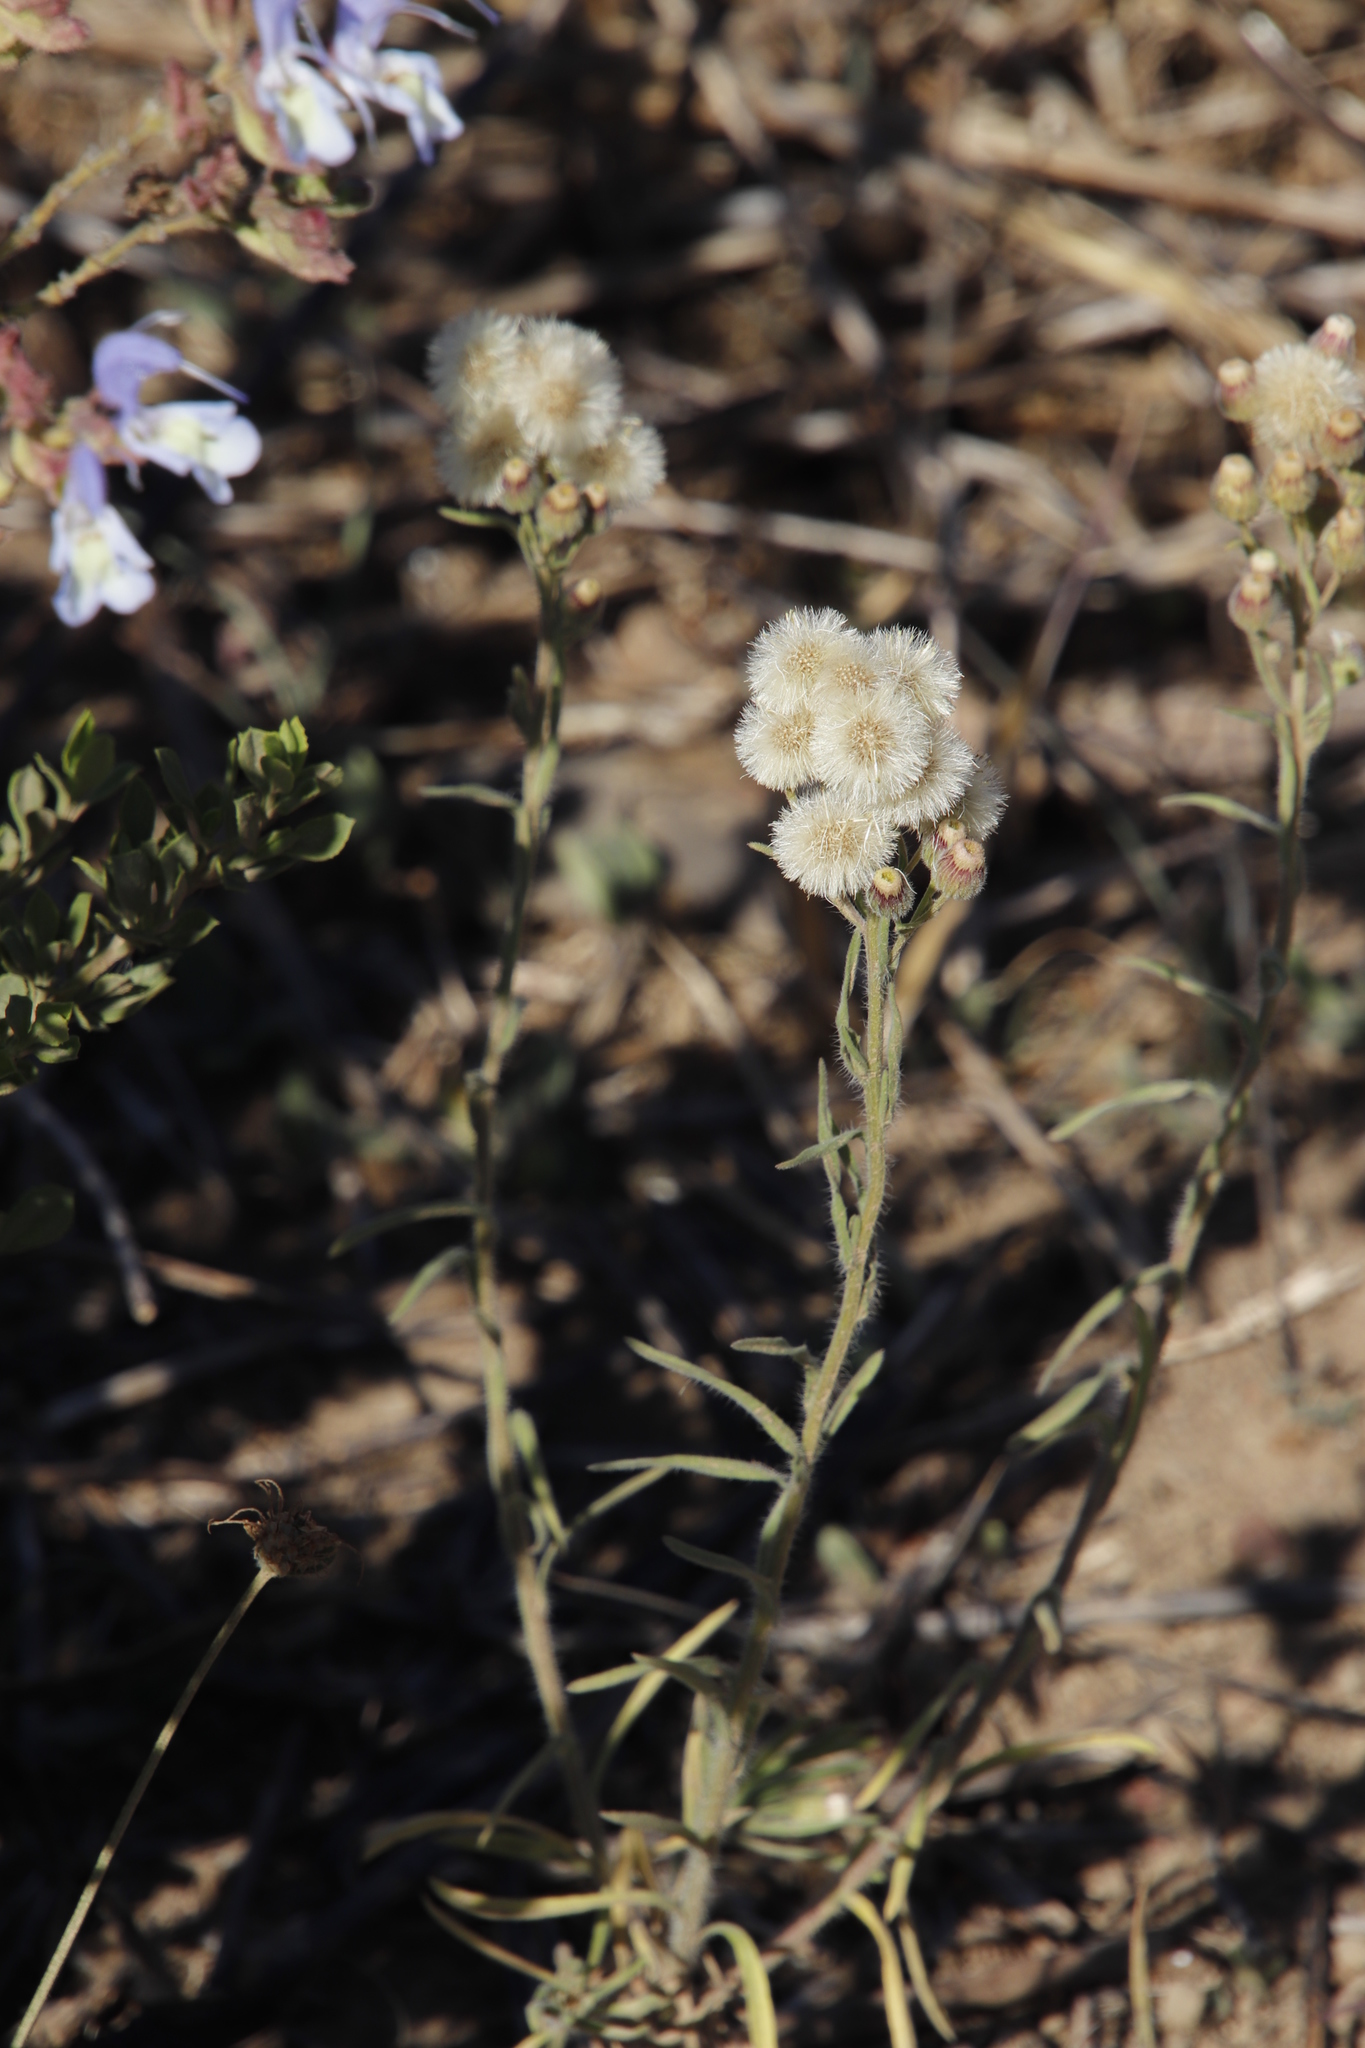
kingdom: Plantae
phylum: Tracheophyta
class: Magnoliopsida
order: Asterales
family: Asteraceae
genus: Erigeron
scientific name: Erigeron bonariensis
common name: Argentine fleabane
